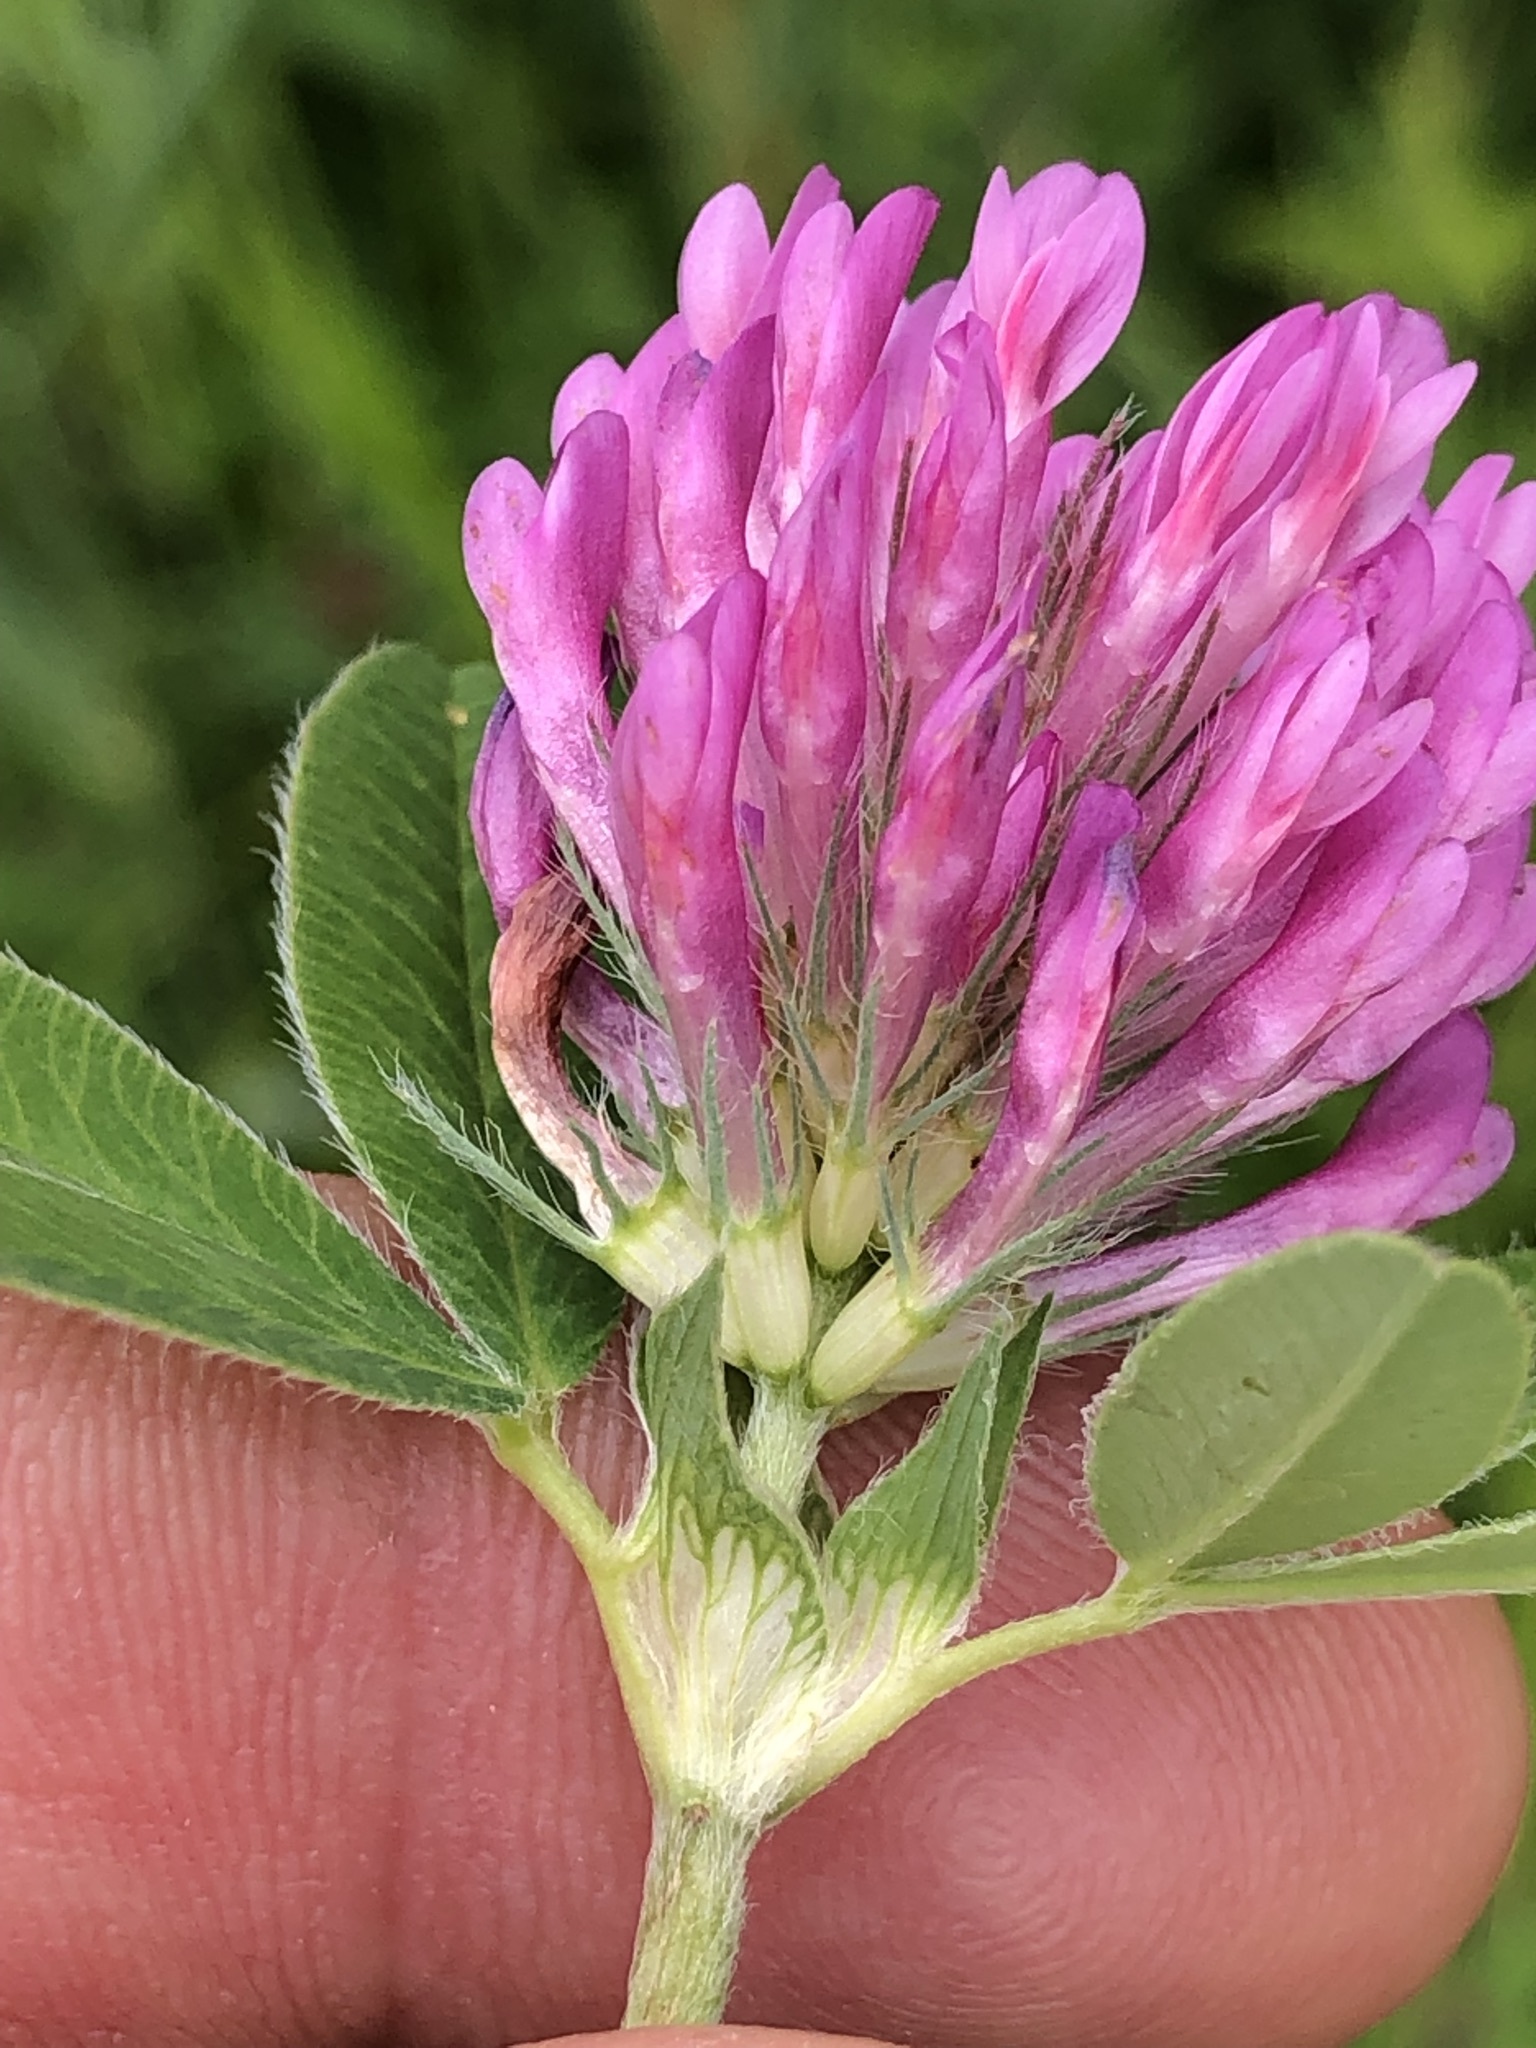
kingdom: Plantae
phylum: Tracheophyta
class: Magnoliopsida
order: Fabales
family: Fabaceae
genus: Trifolium
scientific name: Trifolium medium
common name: Zigzag clover
